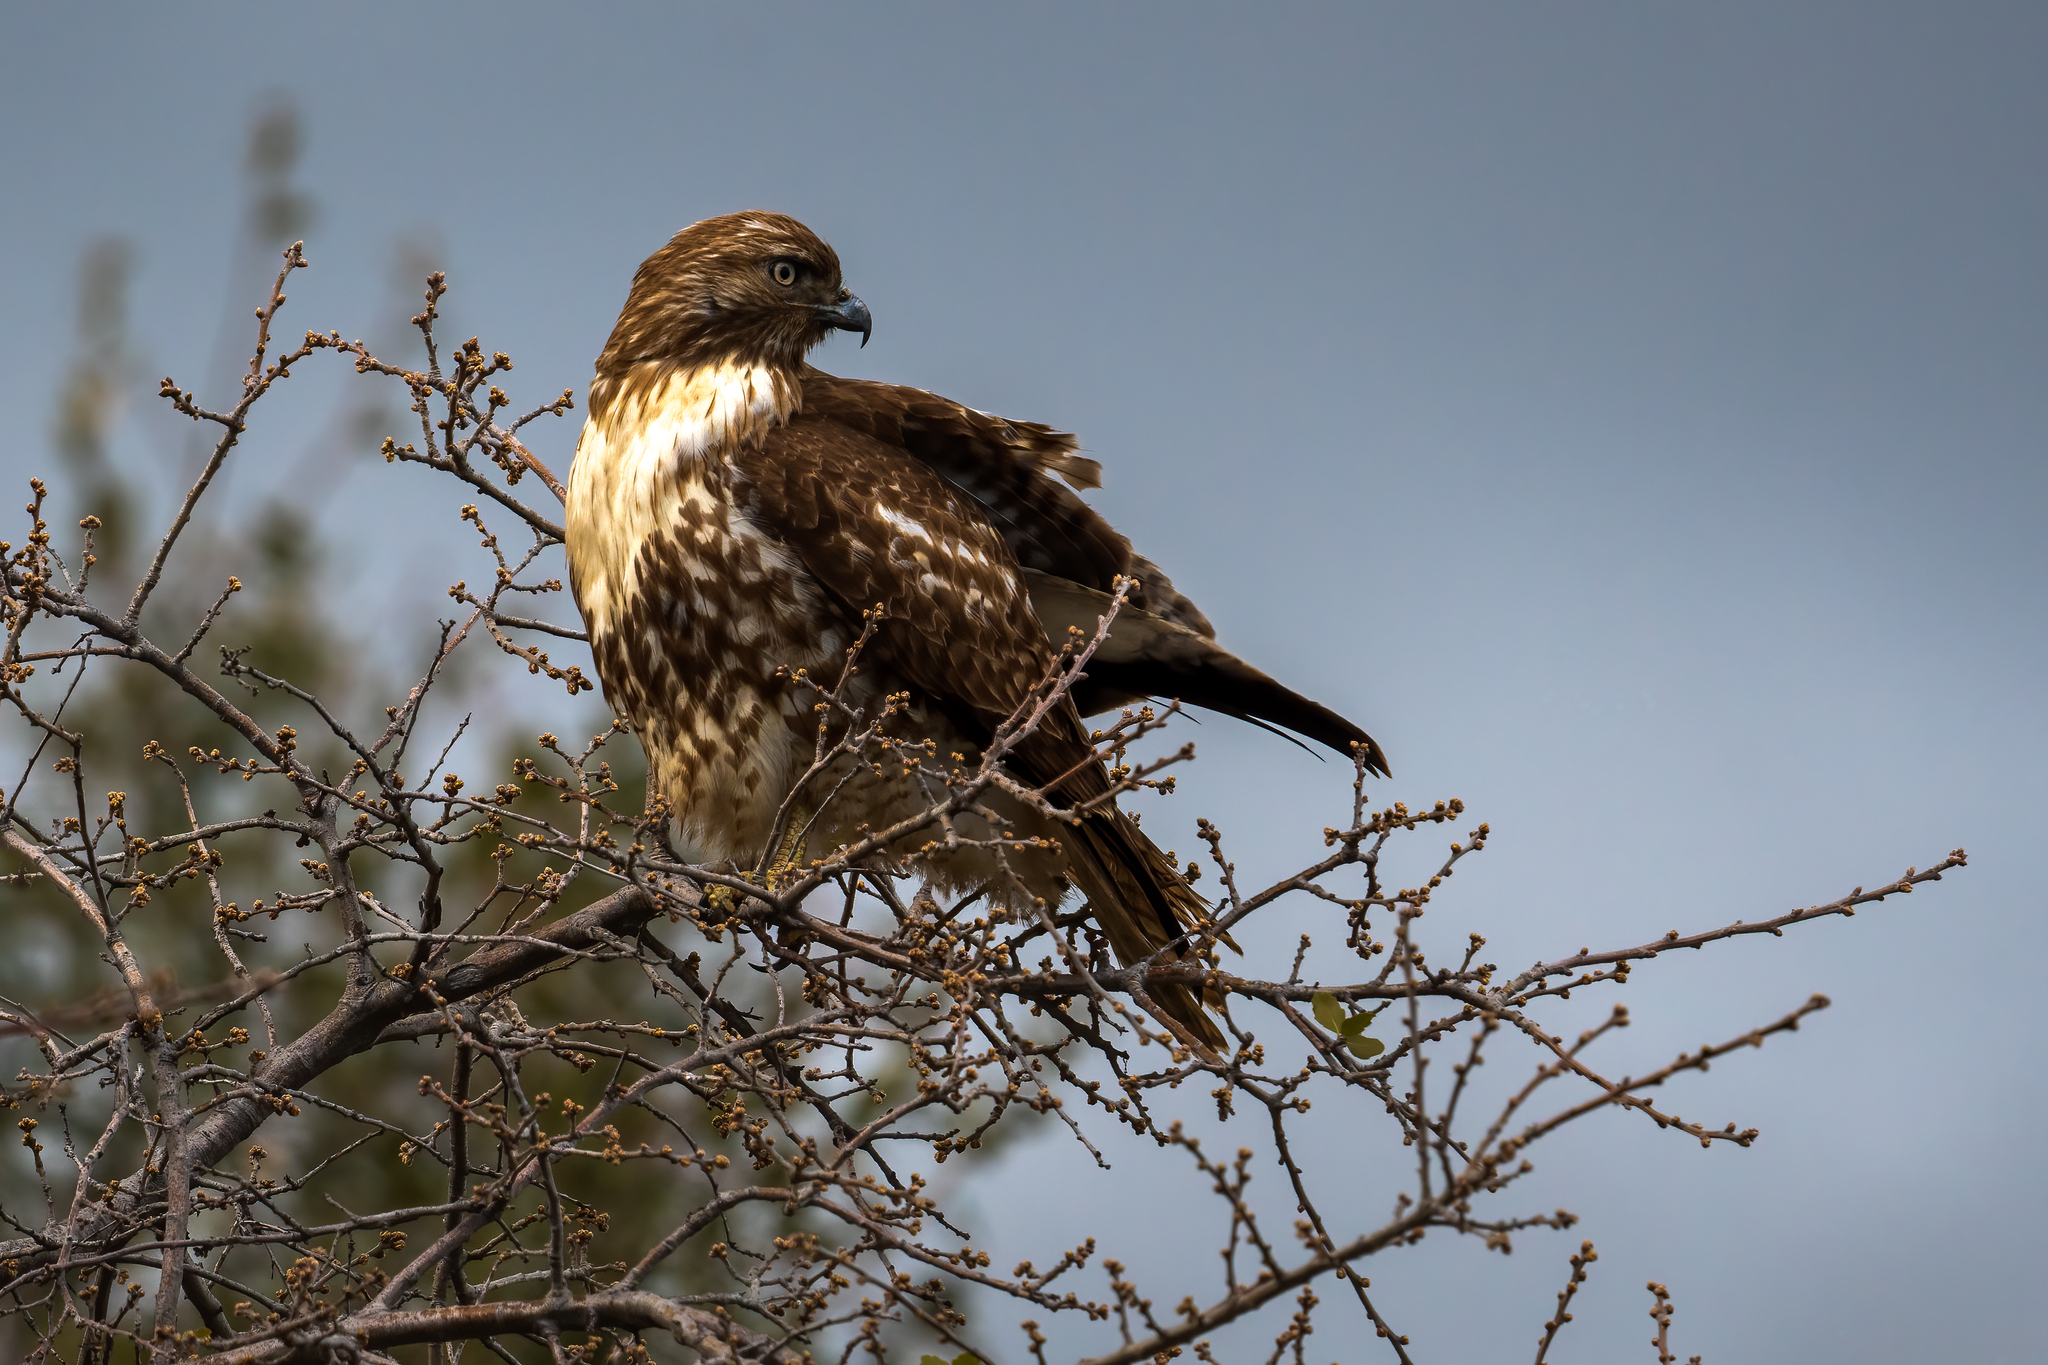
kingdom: Animalia
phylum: Chordata
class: Aves
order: Accipitriformes
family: Accipitridae
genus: Buteo
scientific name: Buteo jamaicensis
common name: Red-tailed hawk
